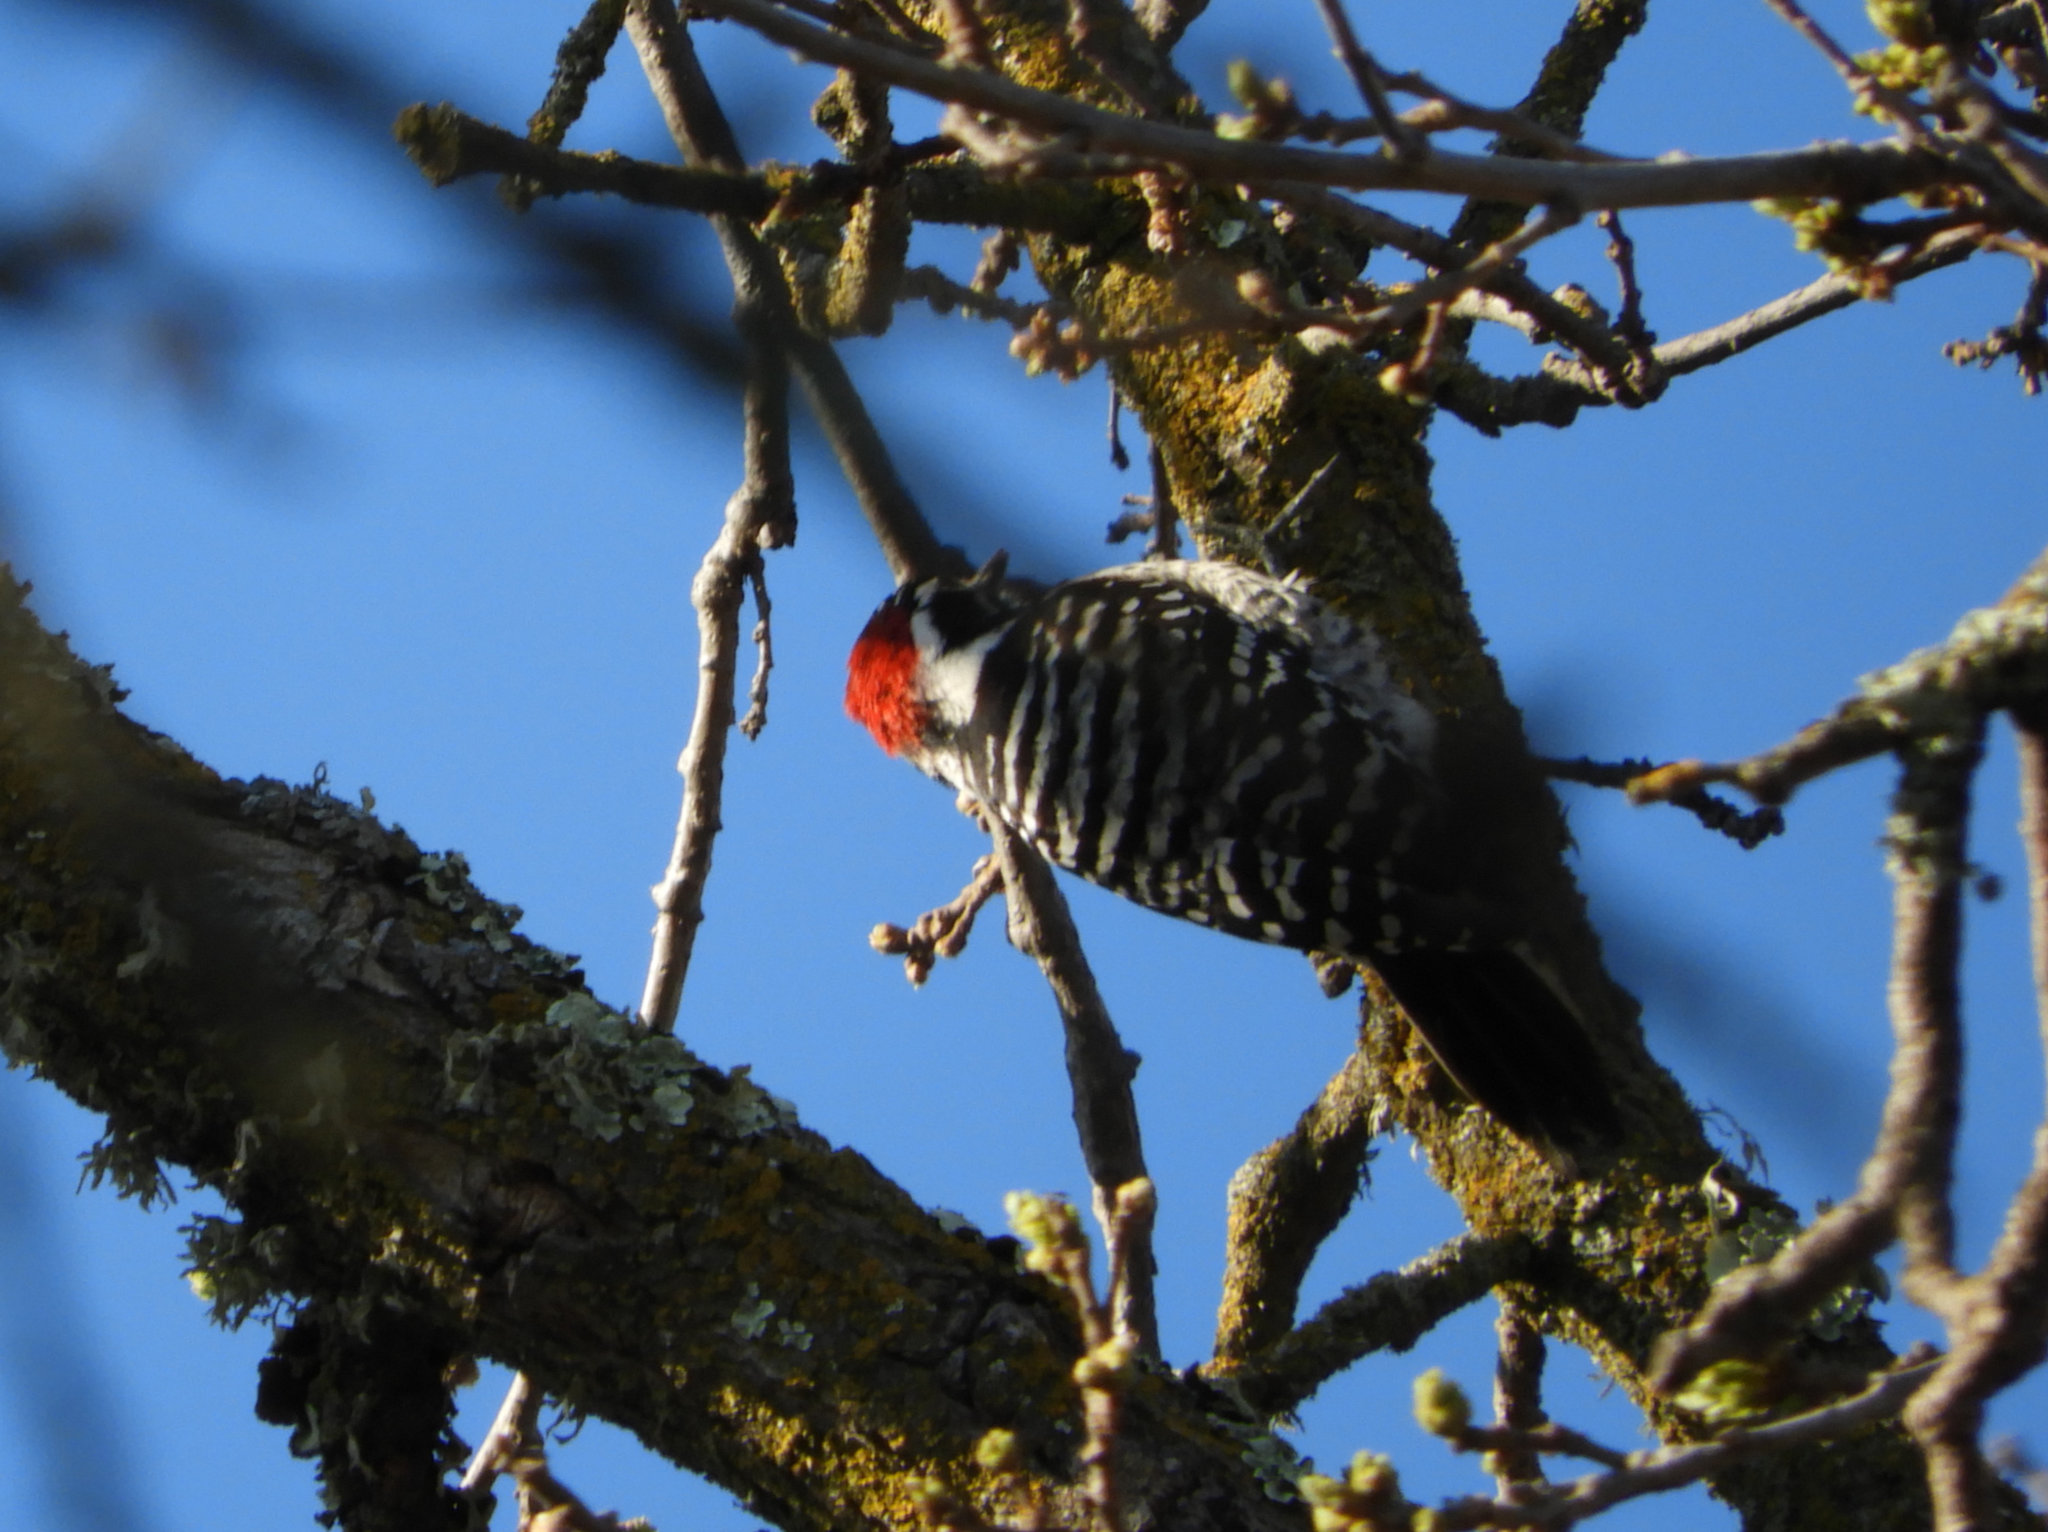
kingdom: Animalia
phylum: Chordata
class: Aves
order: Piciformes
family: Picidae
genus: Dryobates
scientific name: Dryobates nuttallii
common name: Nuttall's woodpecker
